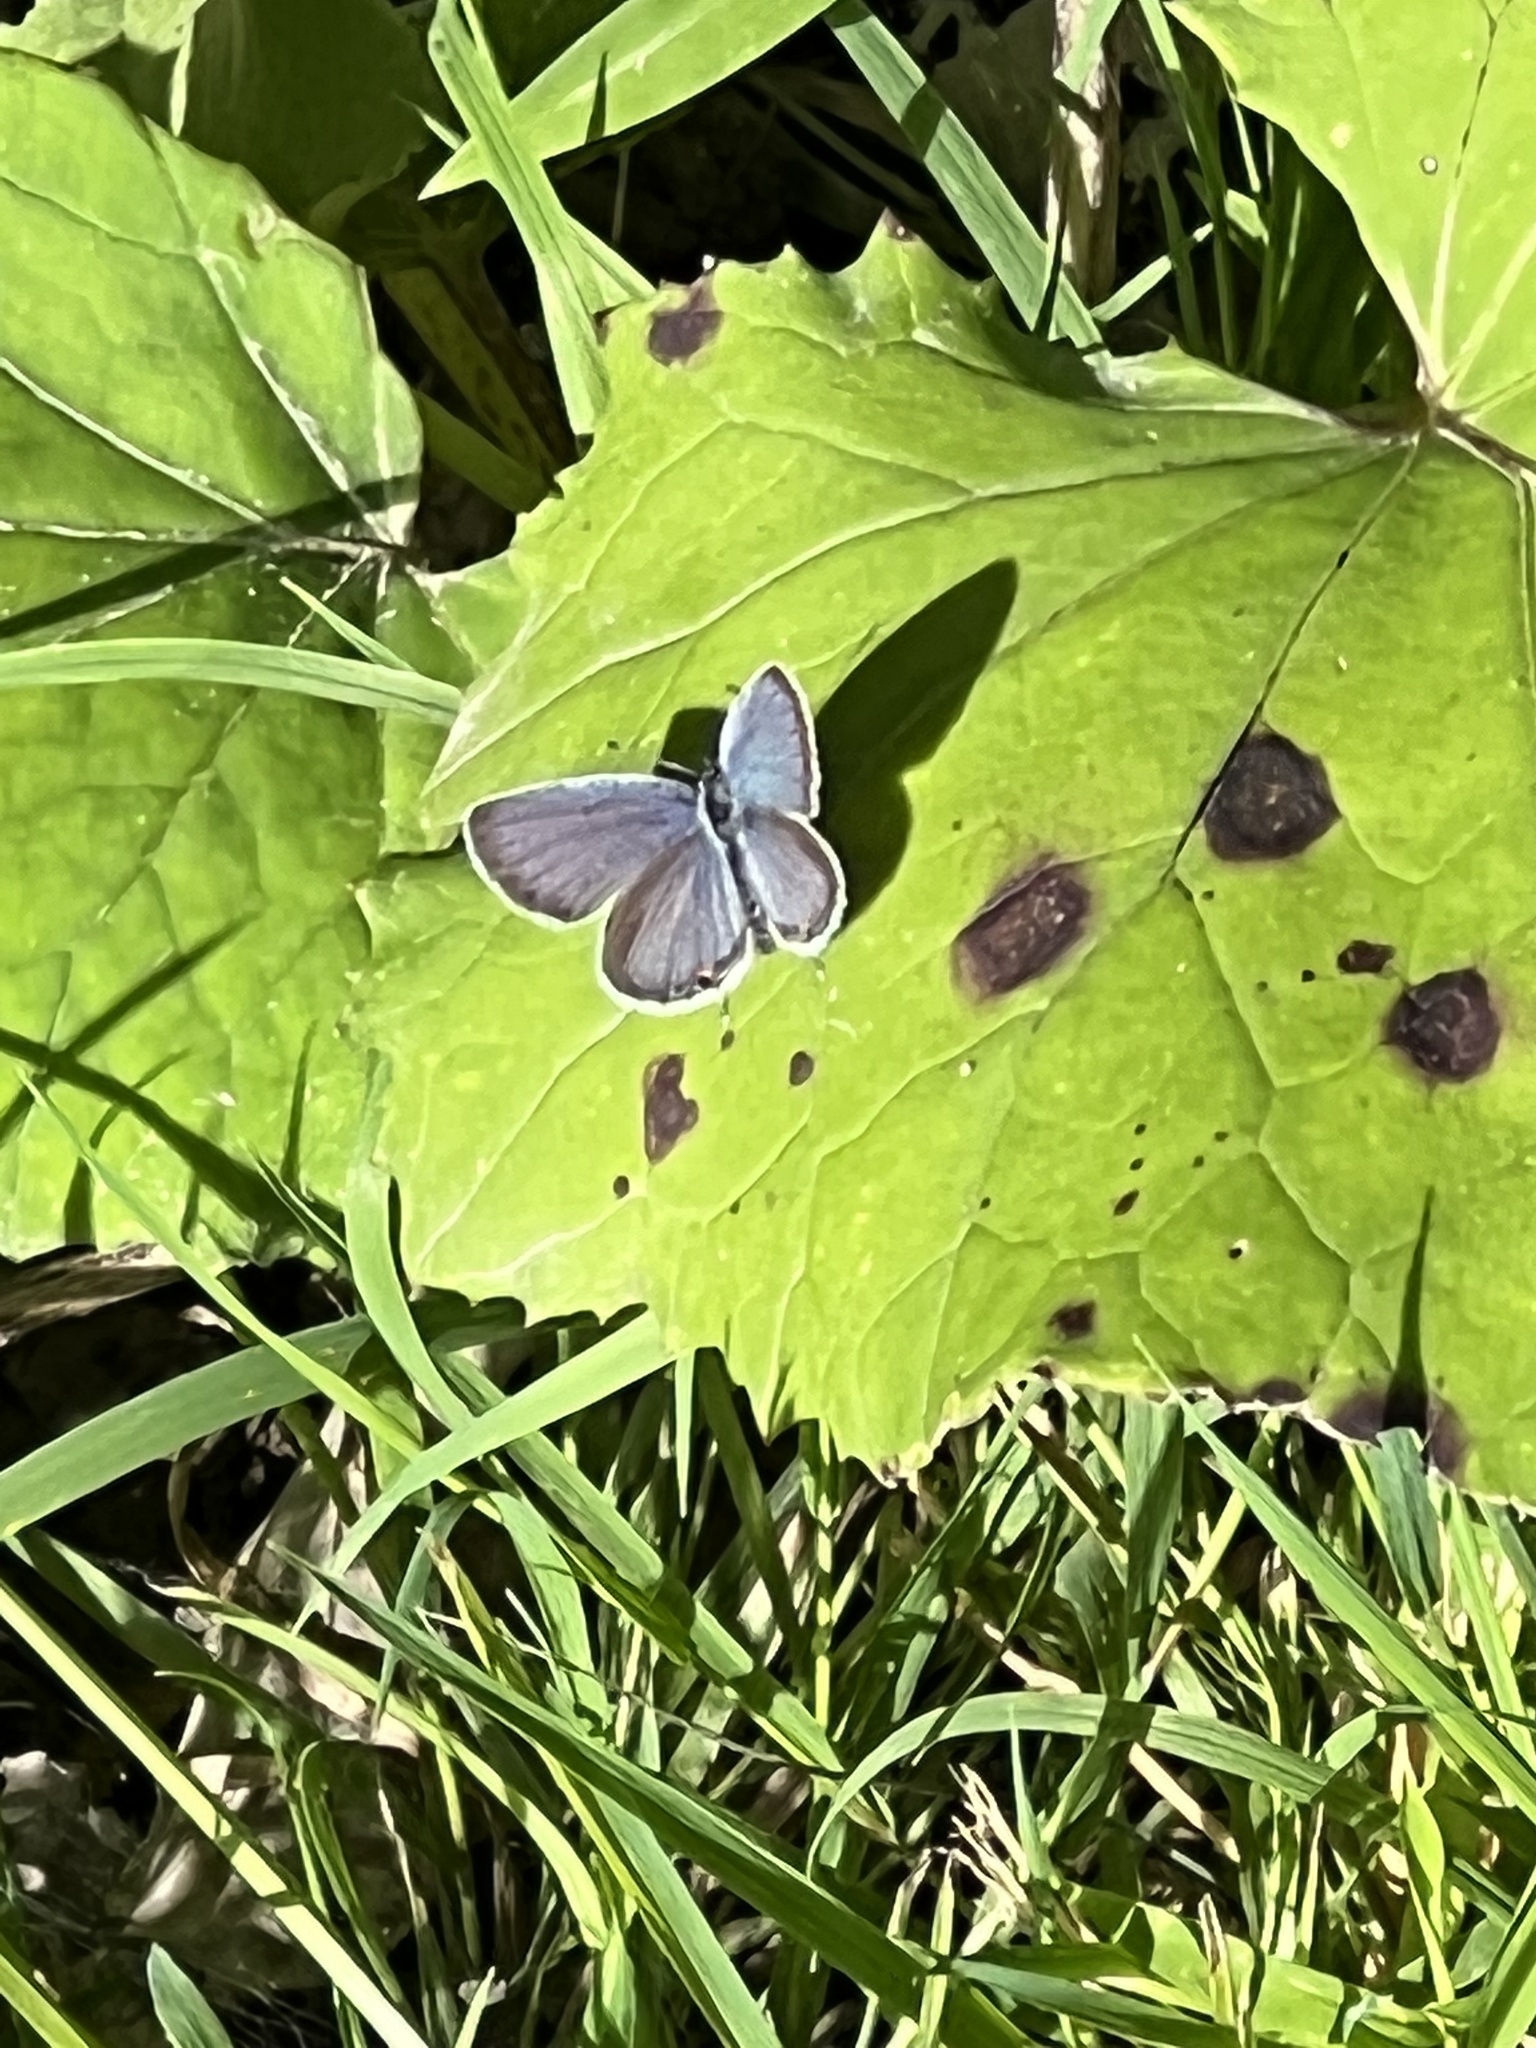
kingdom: Animalia
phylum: Arthropoda
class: Insecta
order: Lepidoptera
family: Lycaenidae
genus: Elkalyce
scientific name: Elkalyce comyntas
